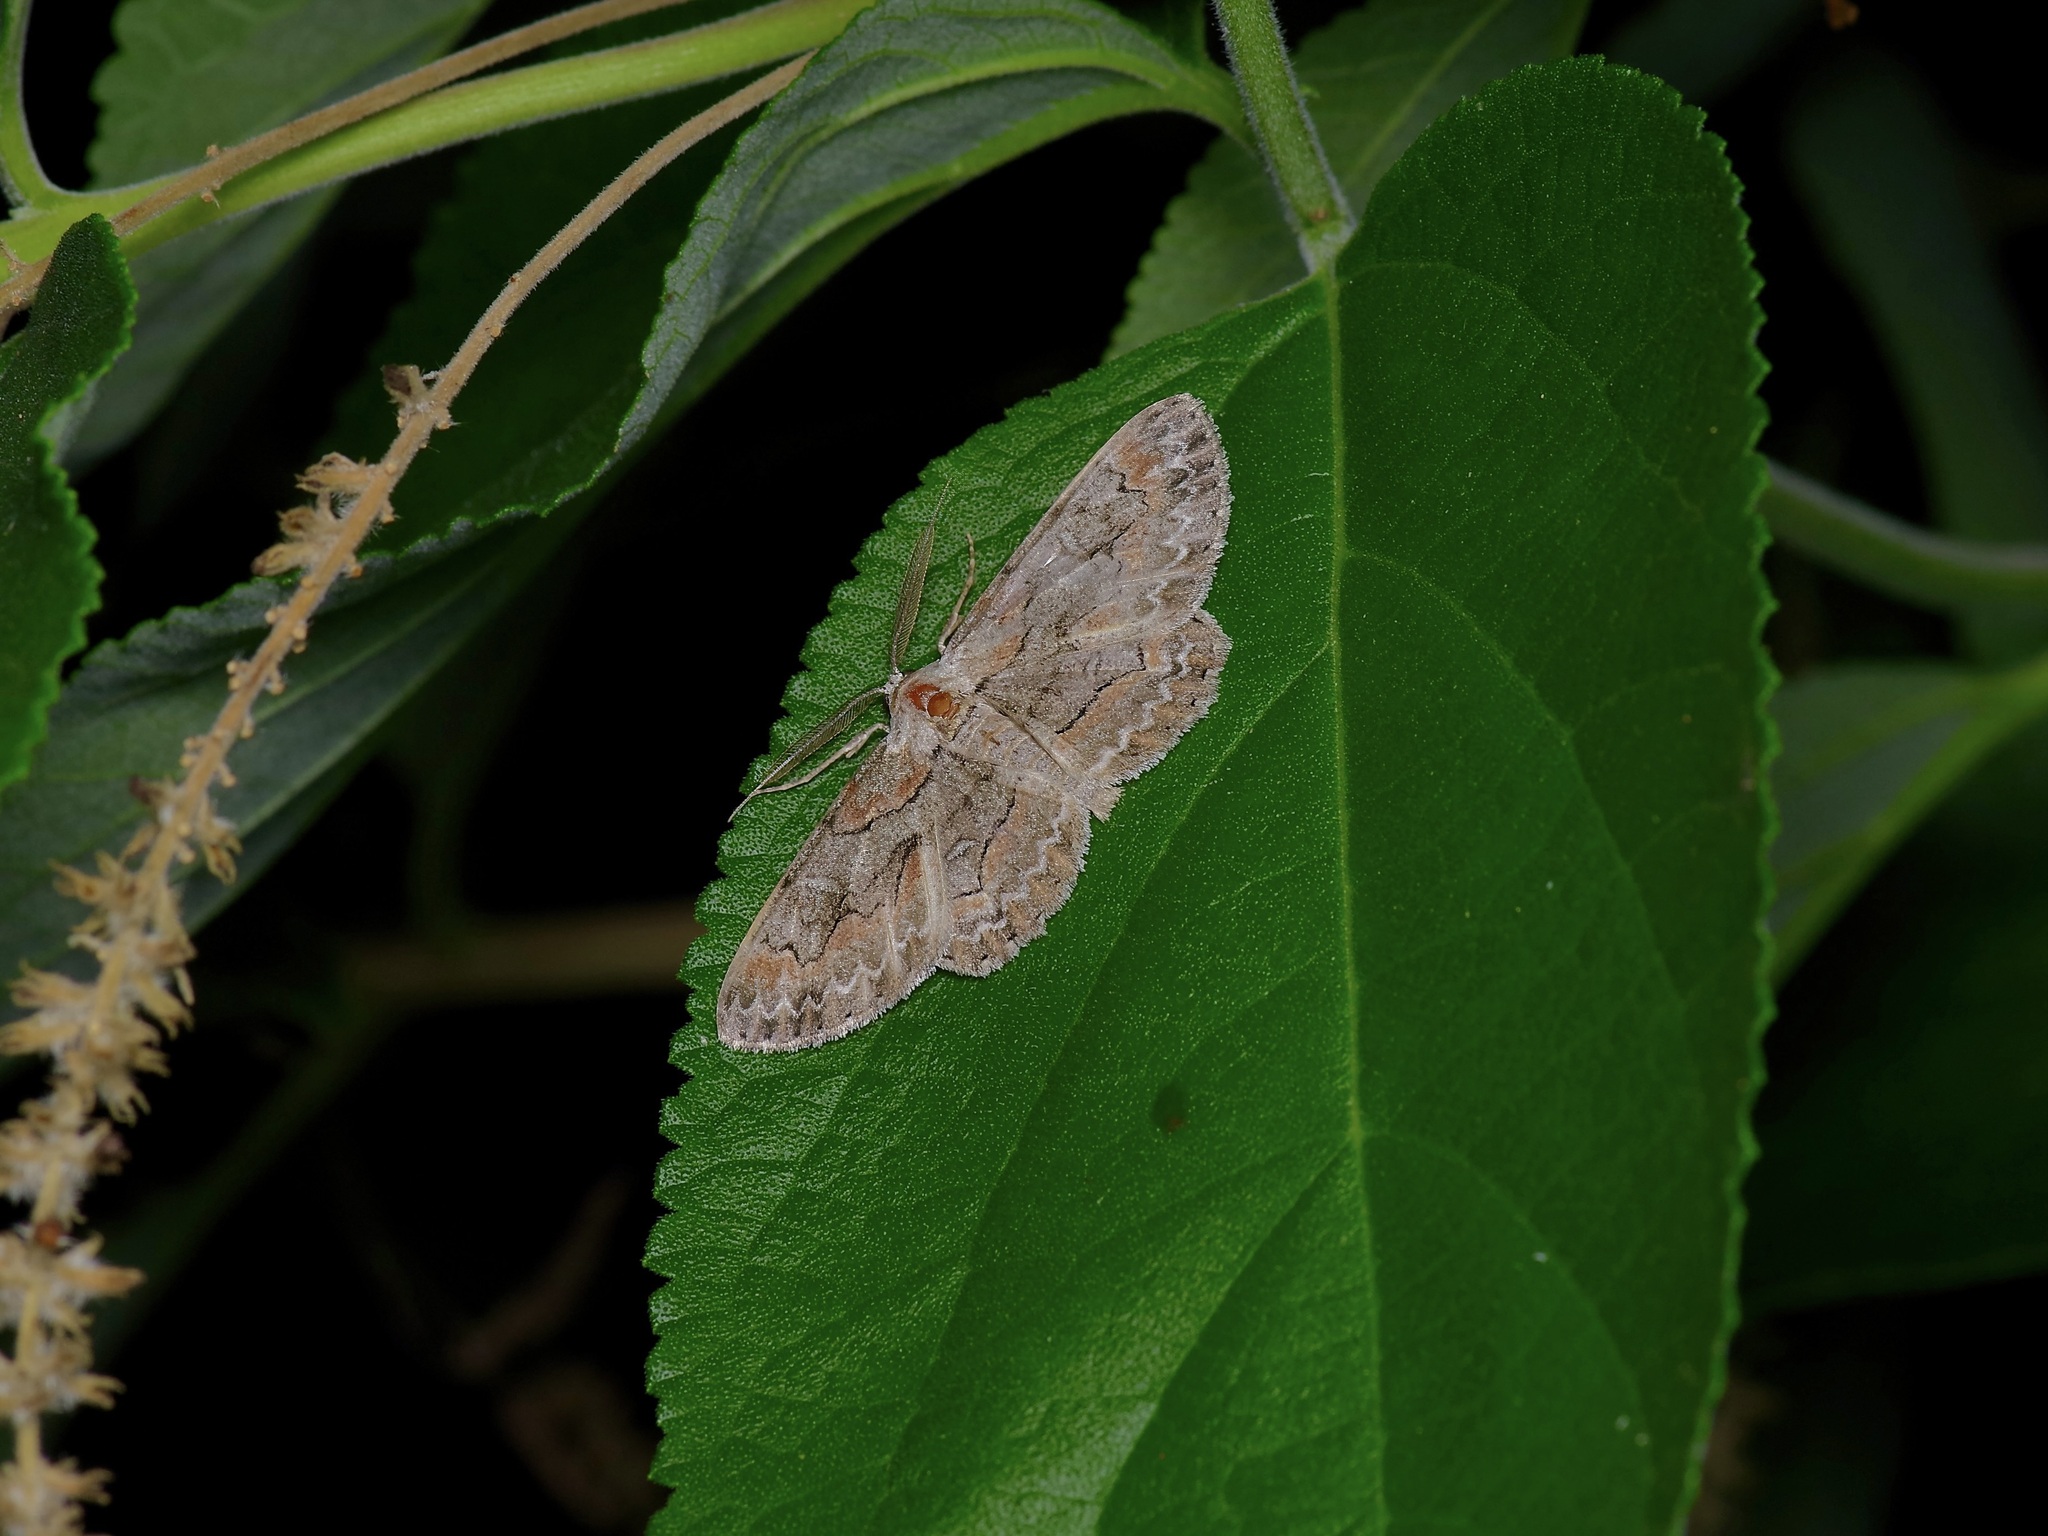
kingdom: Animalia
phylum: Arthropoda
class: Insecta
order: Lepidoptera
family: Geometridae
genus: Iridopsis
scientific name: Iridopsis vellivolata
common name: Large purplish gray
